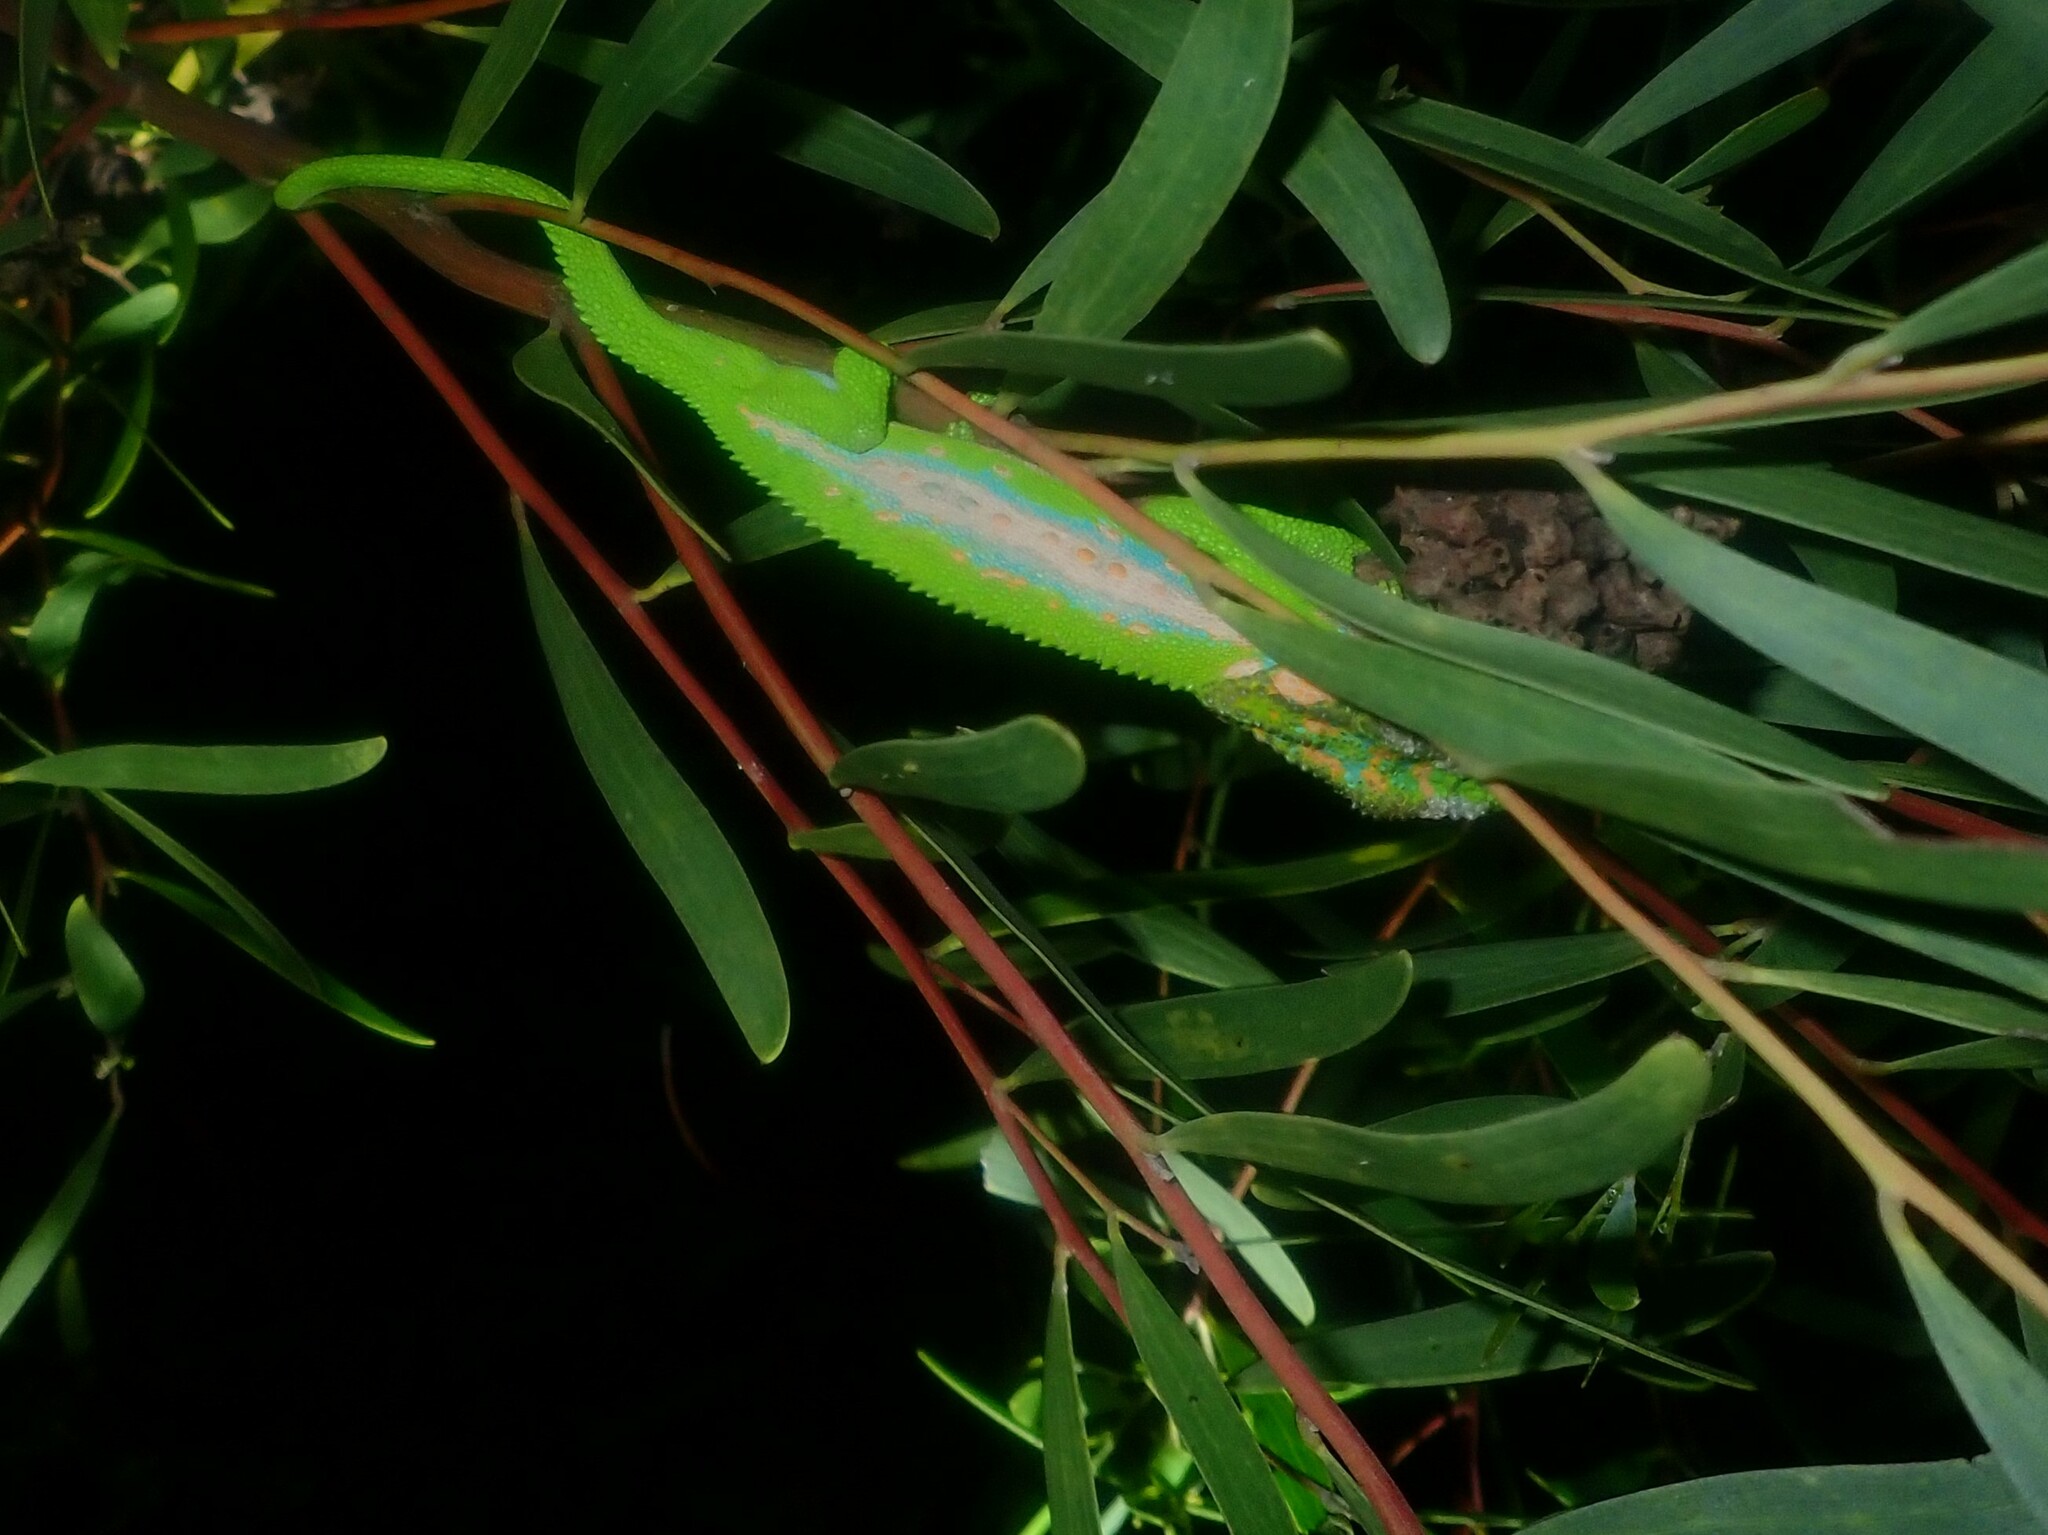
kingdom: Animalia
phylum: Chordata
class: Squamata
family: Chamaeleonidae
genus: Bradypodion
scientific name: Bradypodion pumilum
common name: Cape dwarf chameleon
